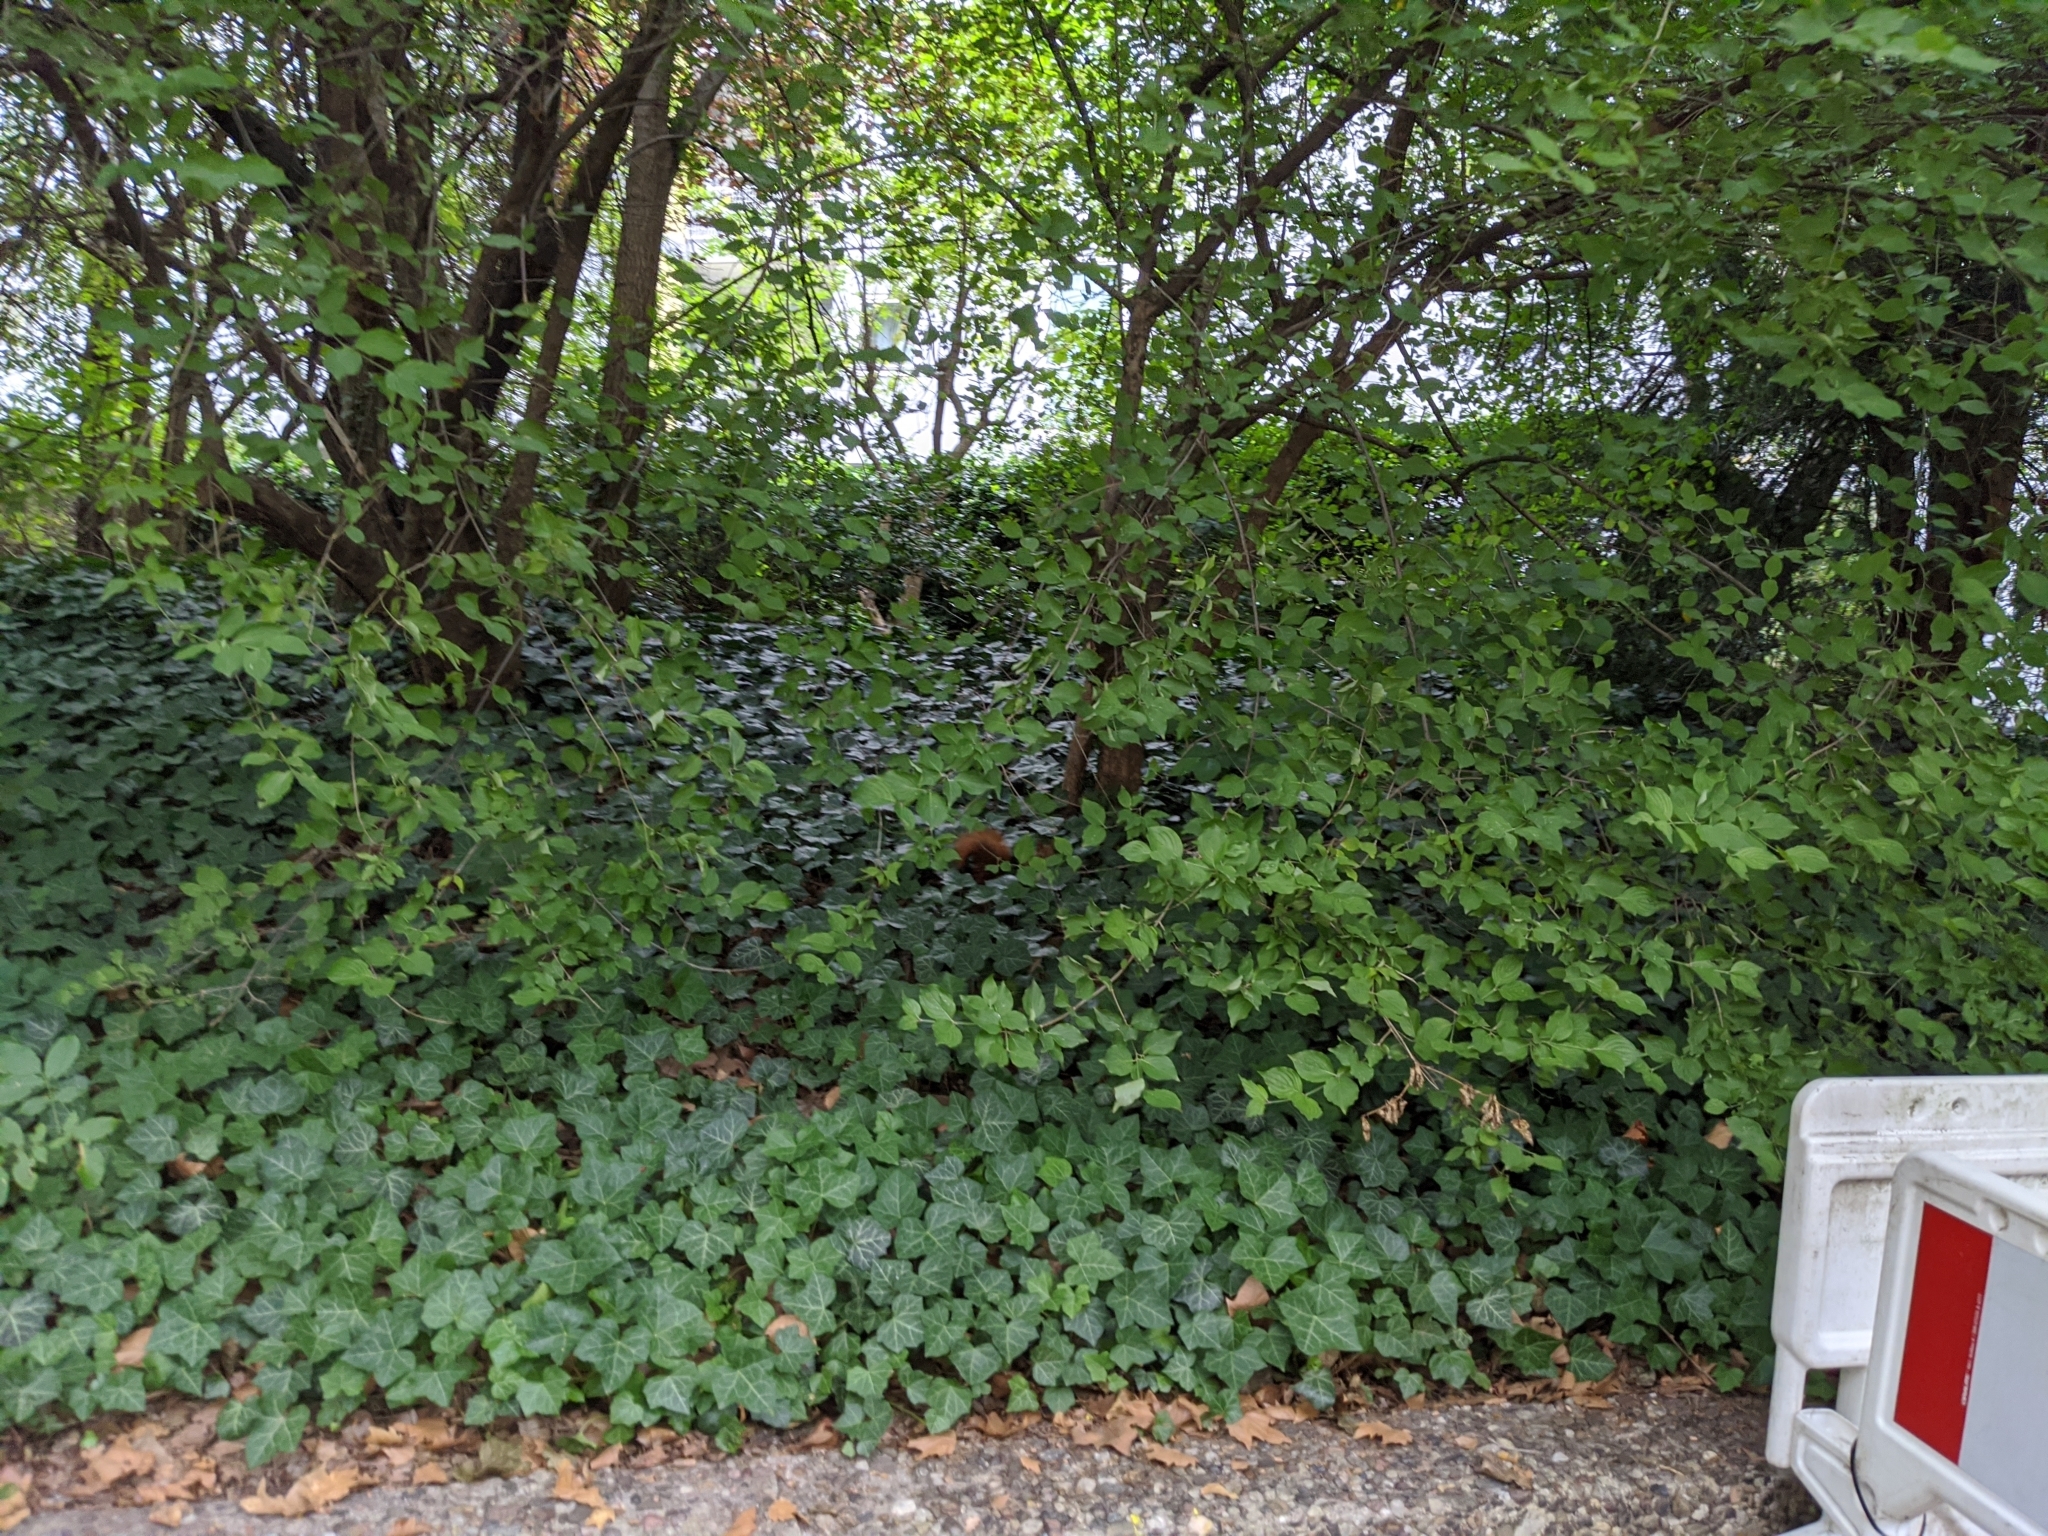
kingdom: Animalia
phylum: Chordata
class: Mammalia
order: Rodentia
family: Sciuridae
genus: Sciurus
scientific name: Sciurus vulgaris
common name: Eurasian red squirrel
